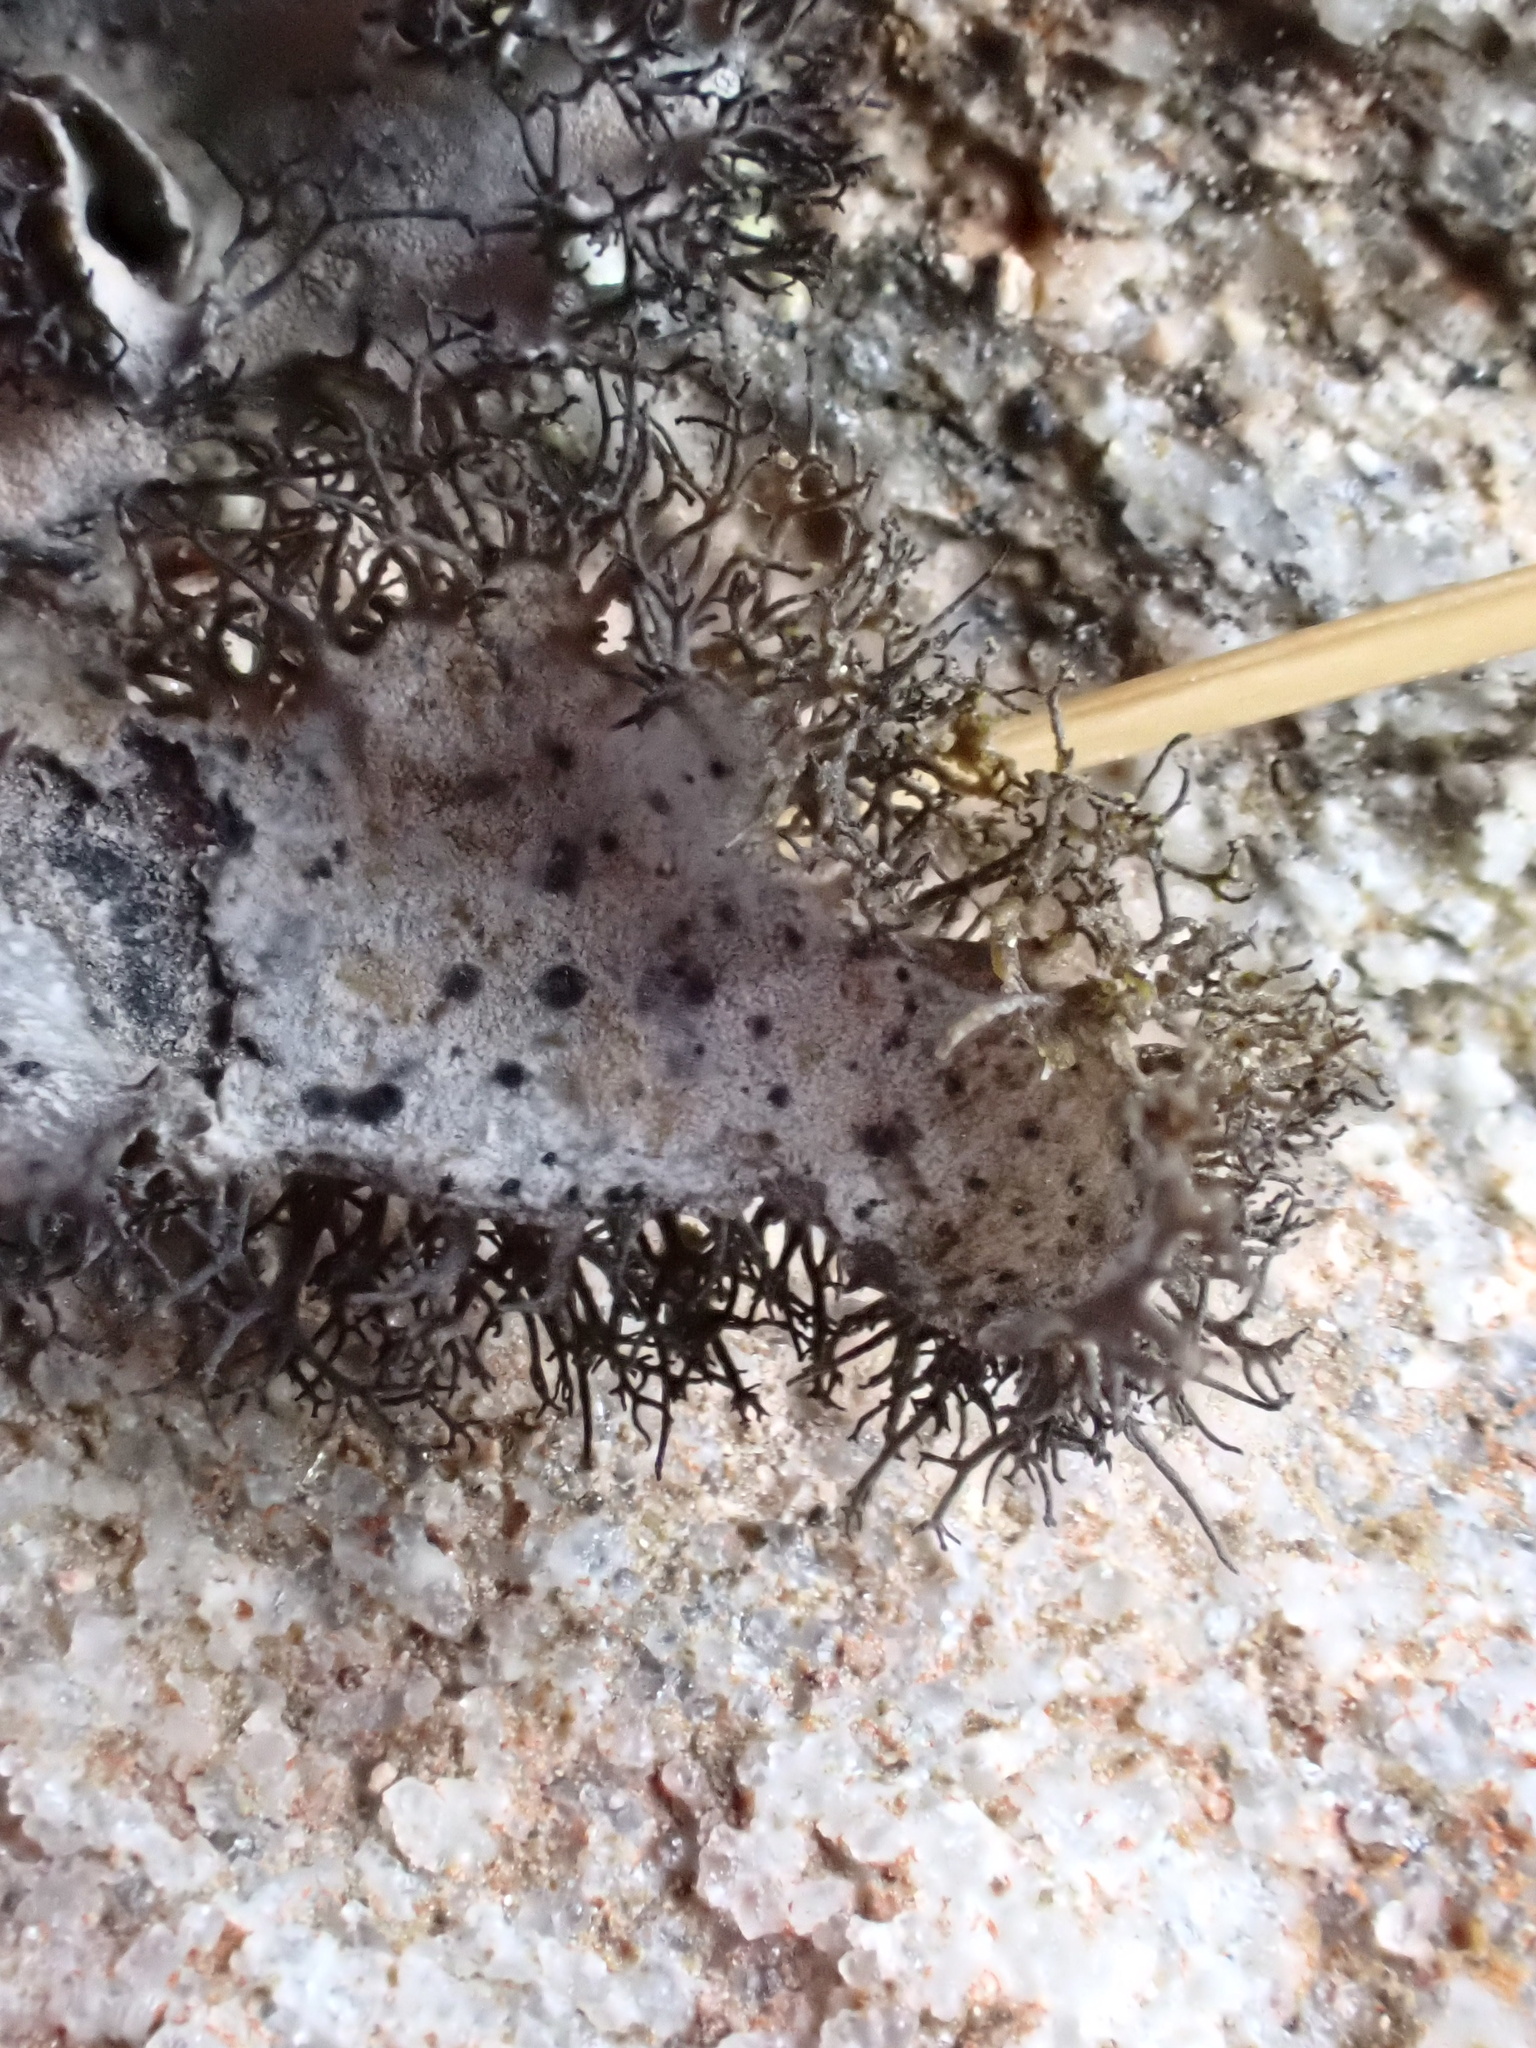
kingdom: Fungi
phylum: Ascomycota
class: Lecanoromycetes
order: Umbilicariales
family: Umbilicariaceae
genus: Umbilicaria
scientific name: Umbilicaria cylindrica
